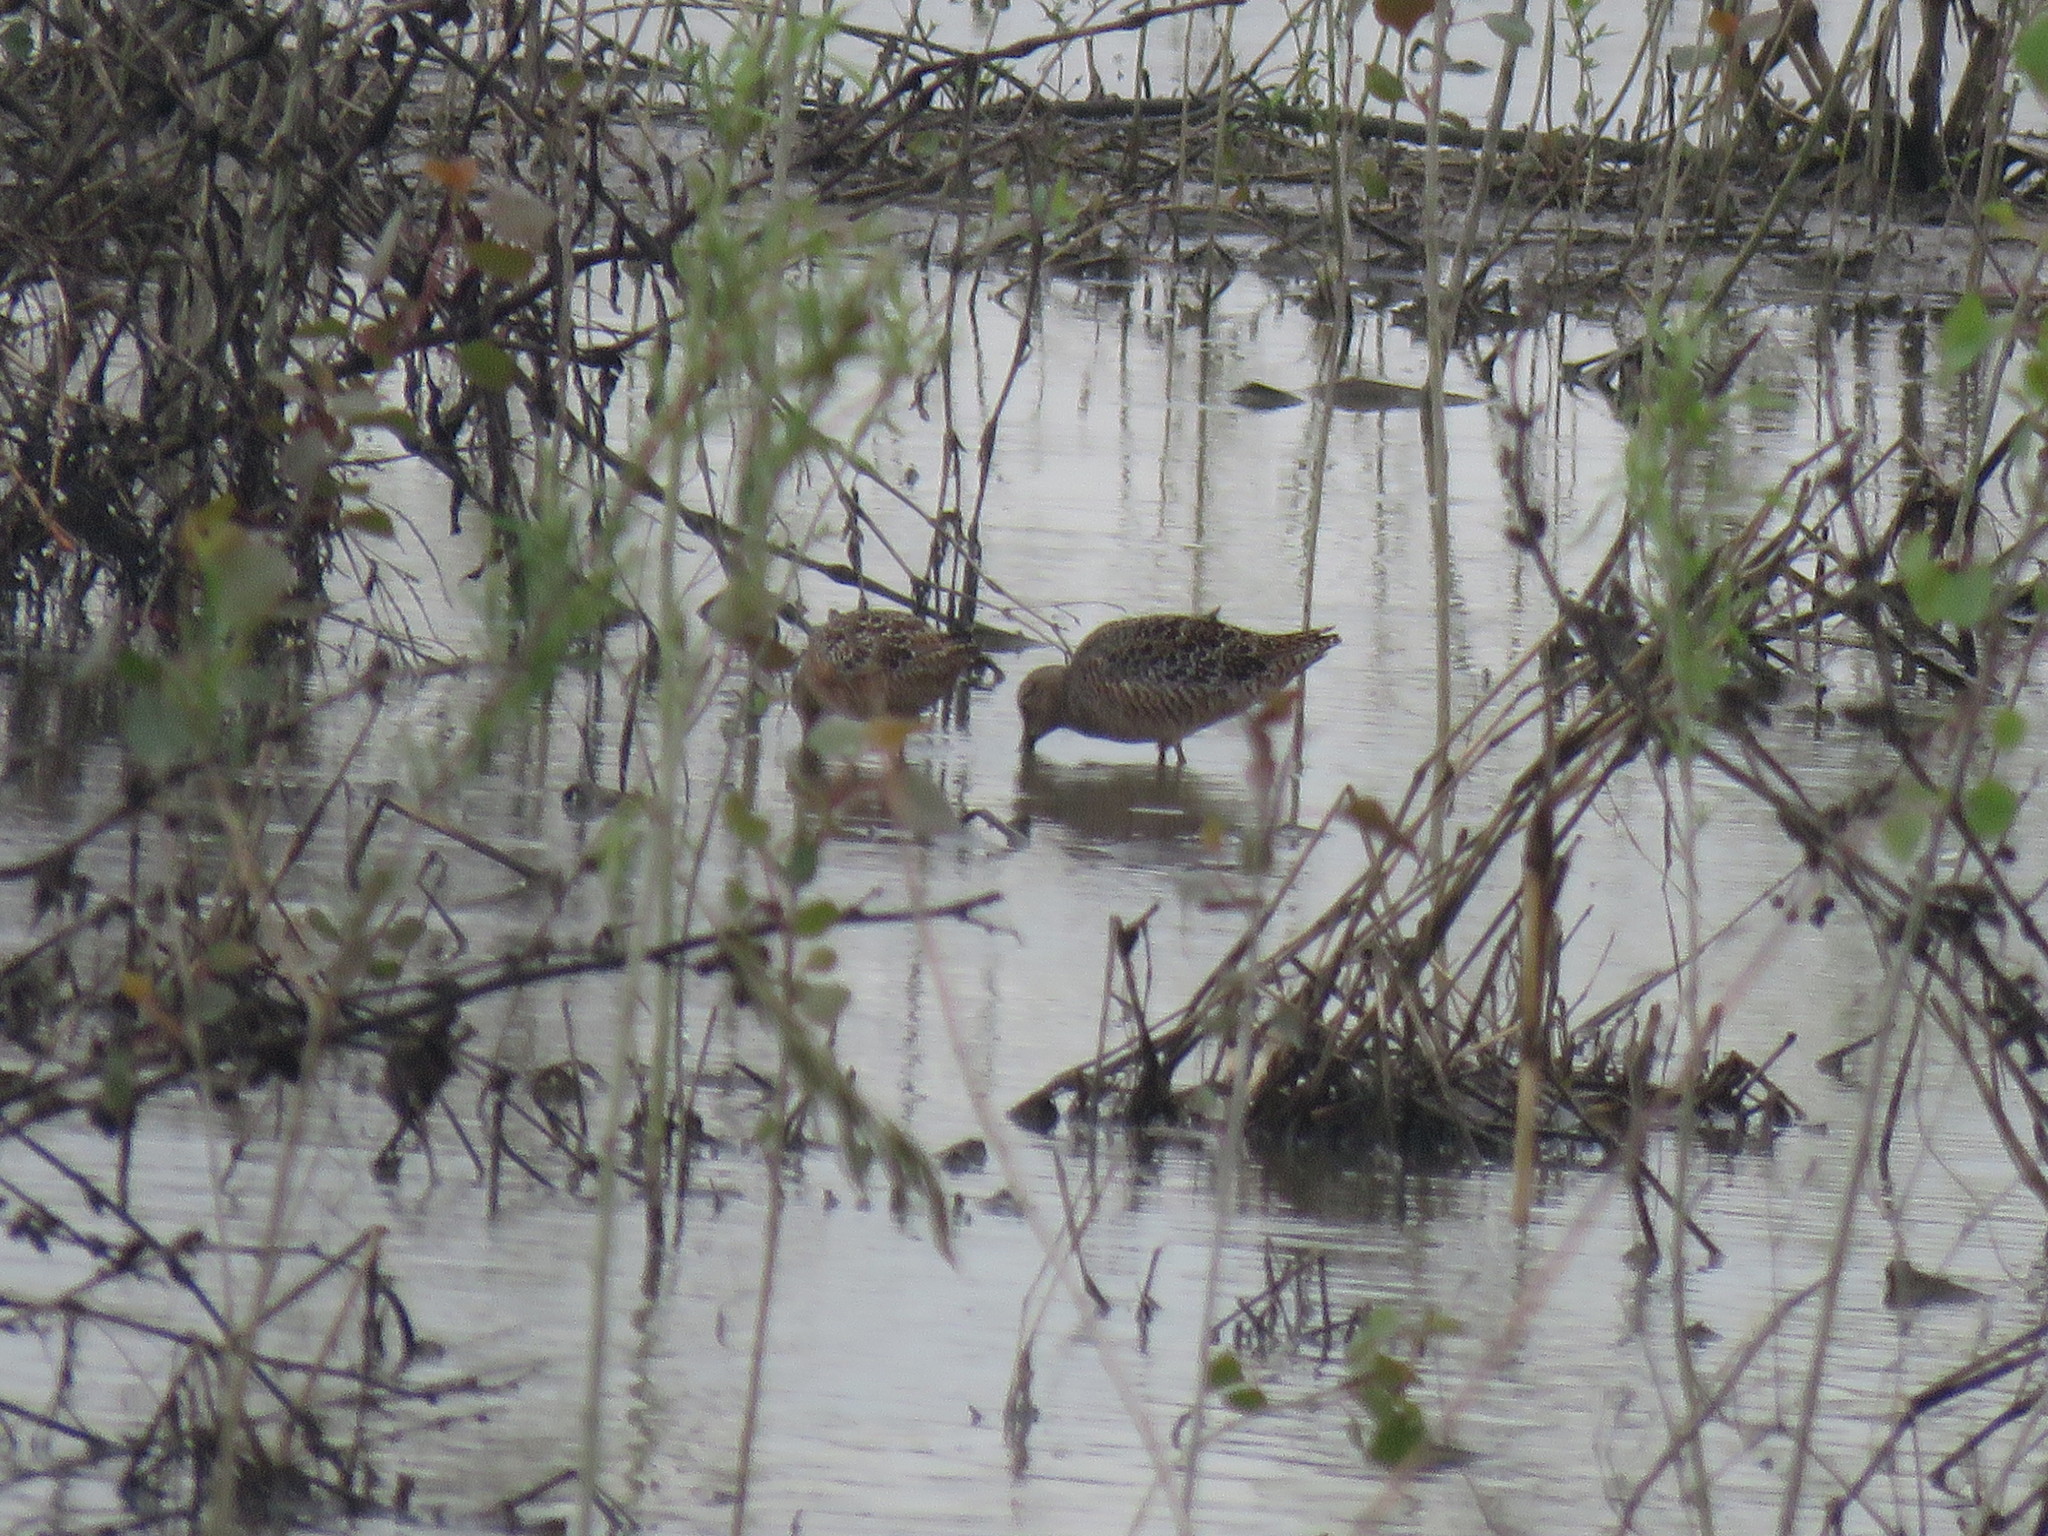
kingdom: Animalia
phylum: Chordata
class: Aves
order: Charadriiformes
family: Scolopacidae
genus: Limnodromus
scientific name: Limnodromus scolopaceus
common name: Long-billed dowitcher
